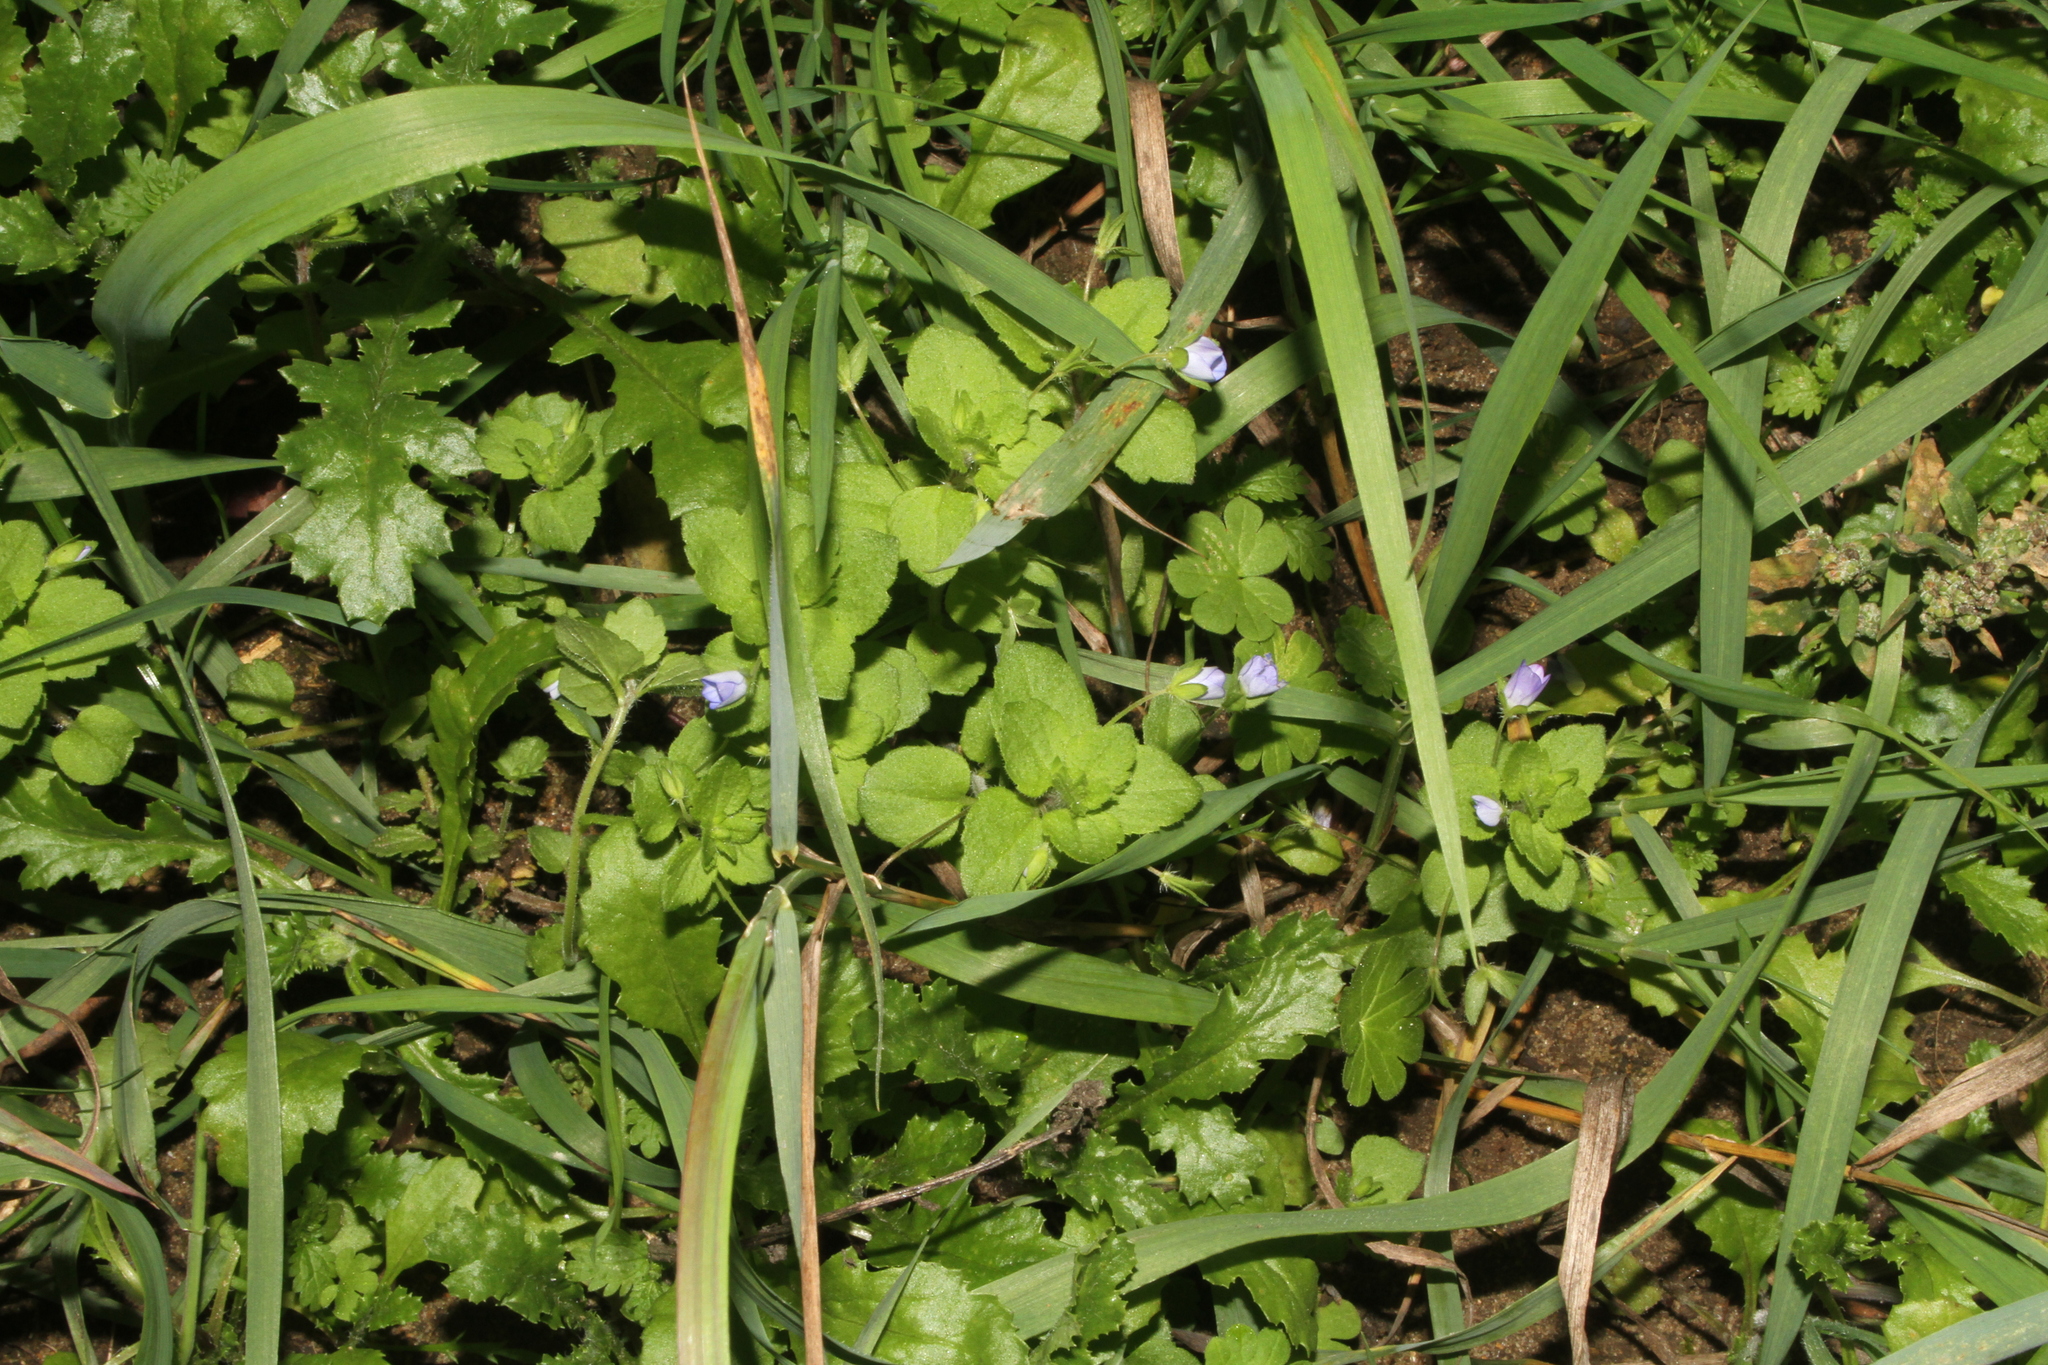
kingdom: Plantae
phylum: Tracheophyta
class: Magnoliopsida
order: Lamiales
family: Plantaginaceae
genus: Veronica
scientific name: Veronica persica
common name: Common field-speedwell
